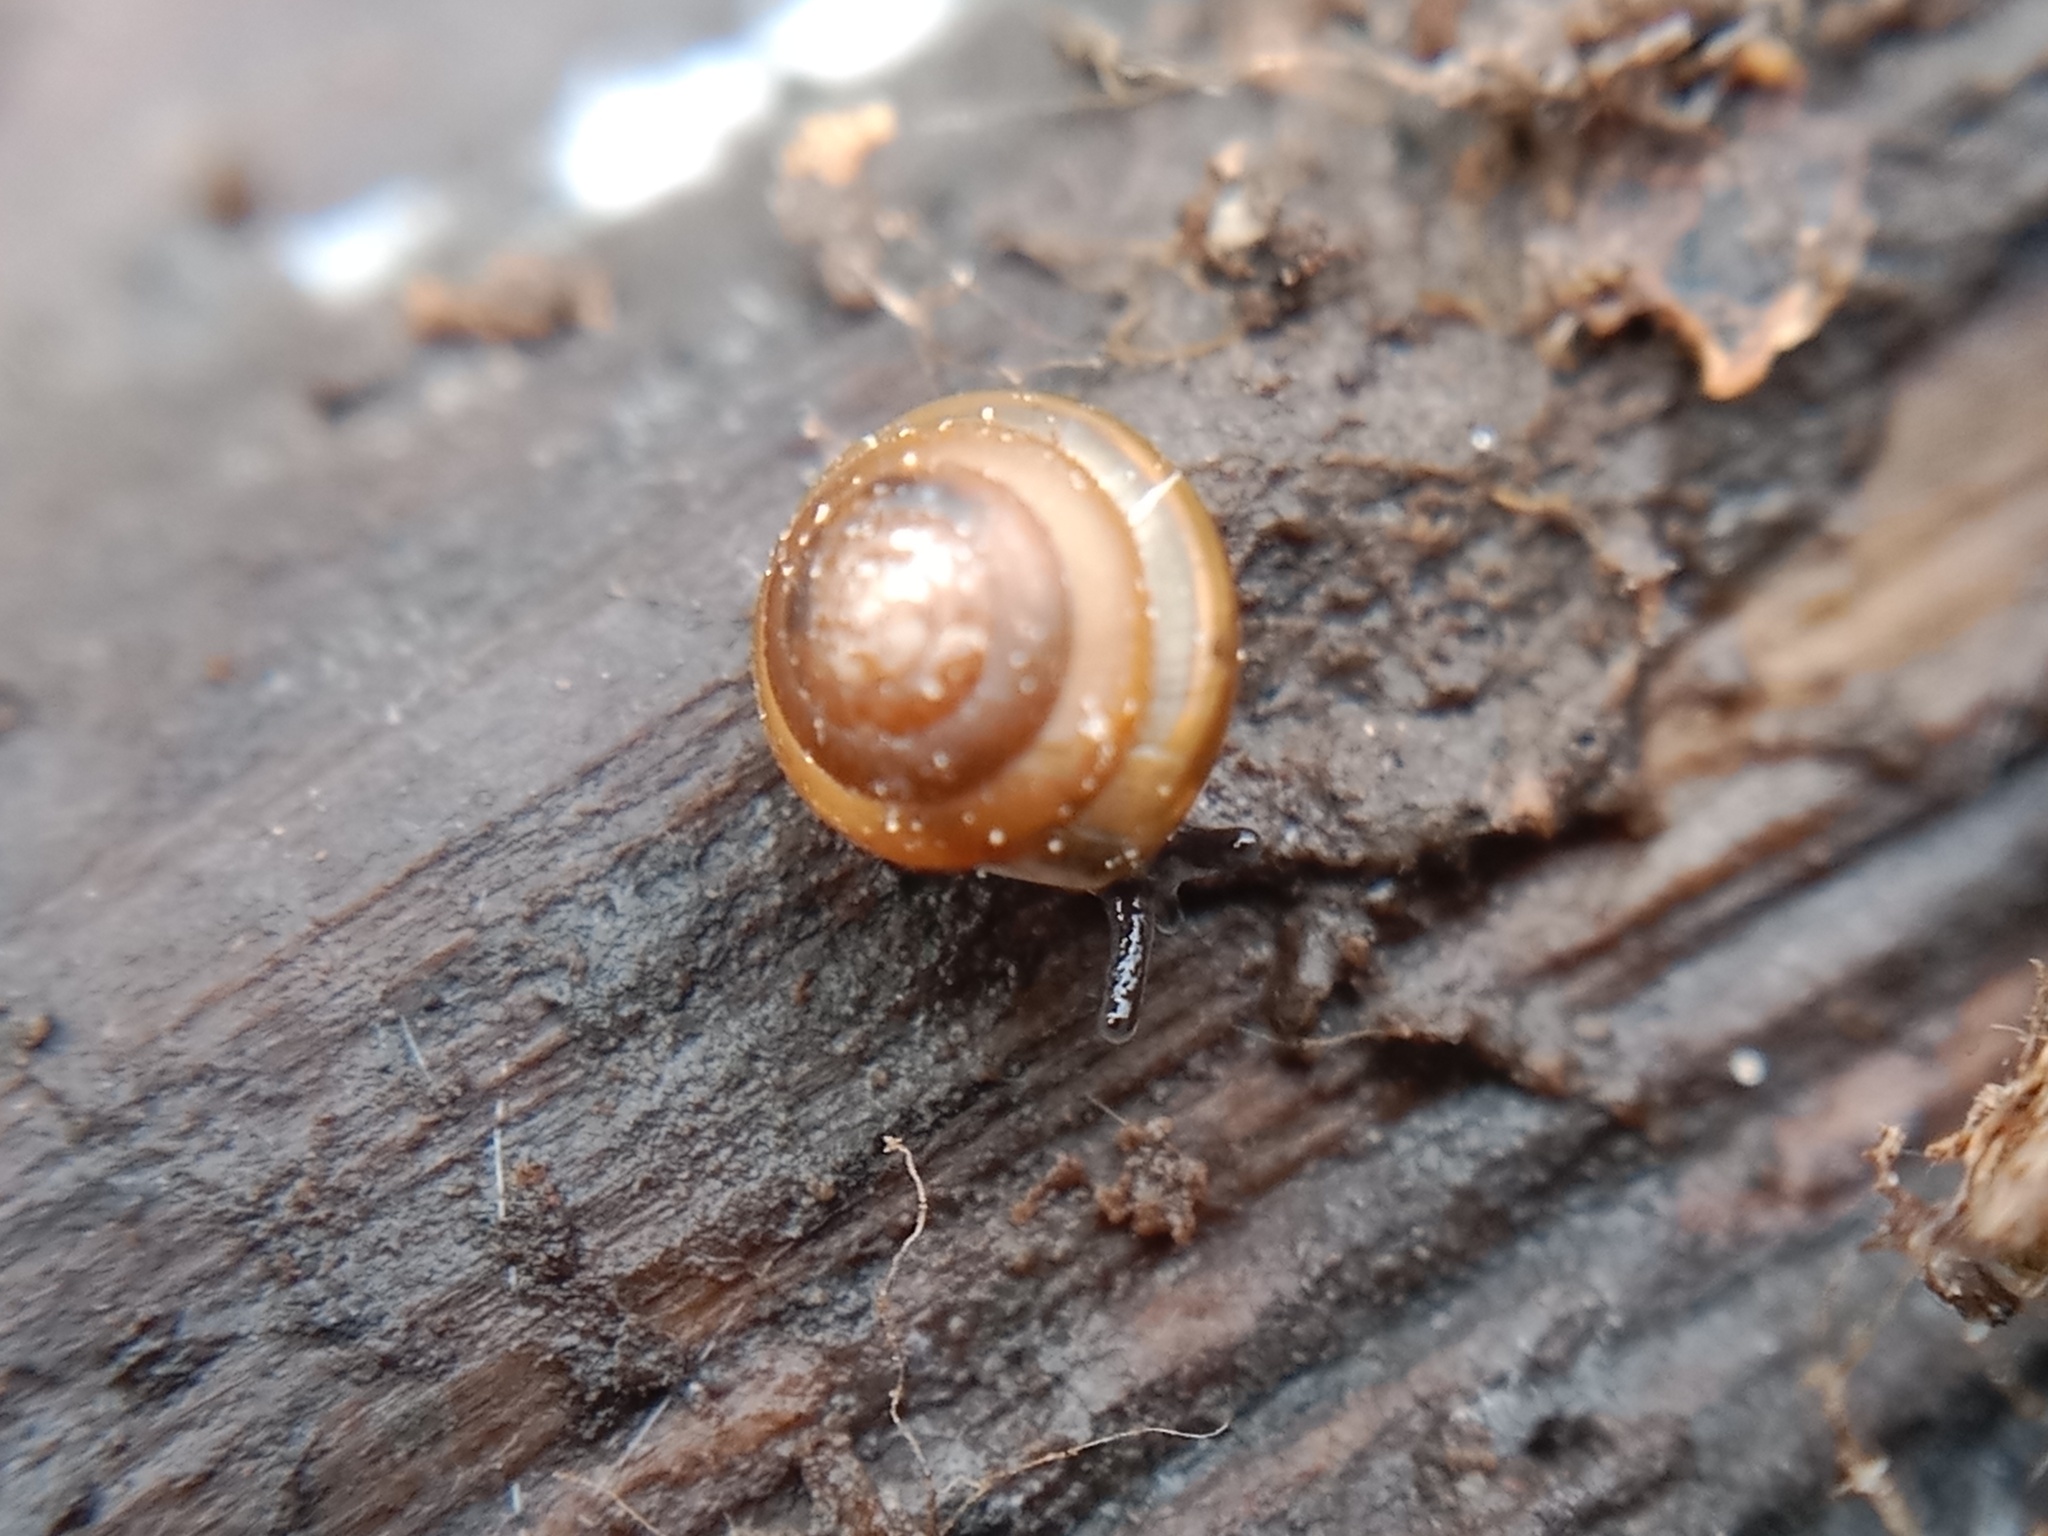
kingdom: Animalia
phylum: Mollusca
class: Gastropoda
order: Stylommatophora
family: Euconulidae
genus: Euconulus
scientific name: Euconulus fulvus
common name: Tawny glass snail
